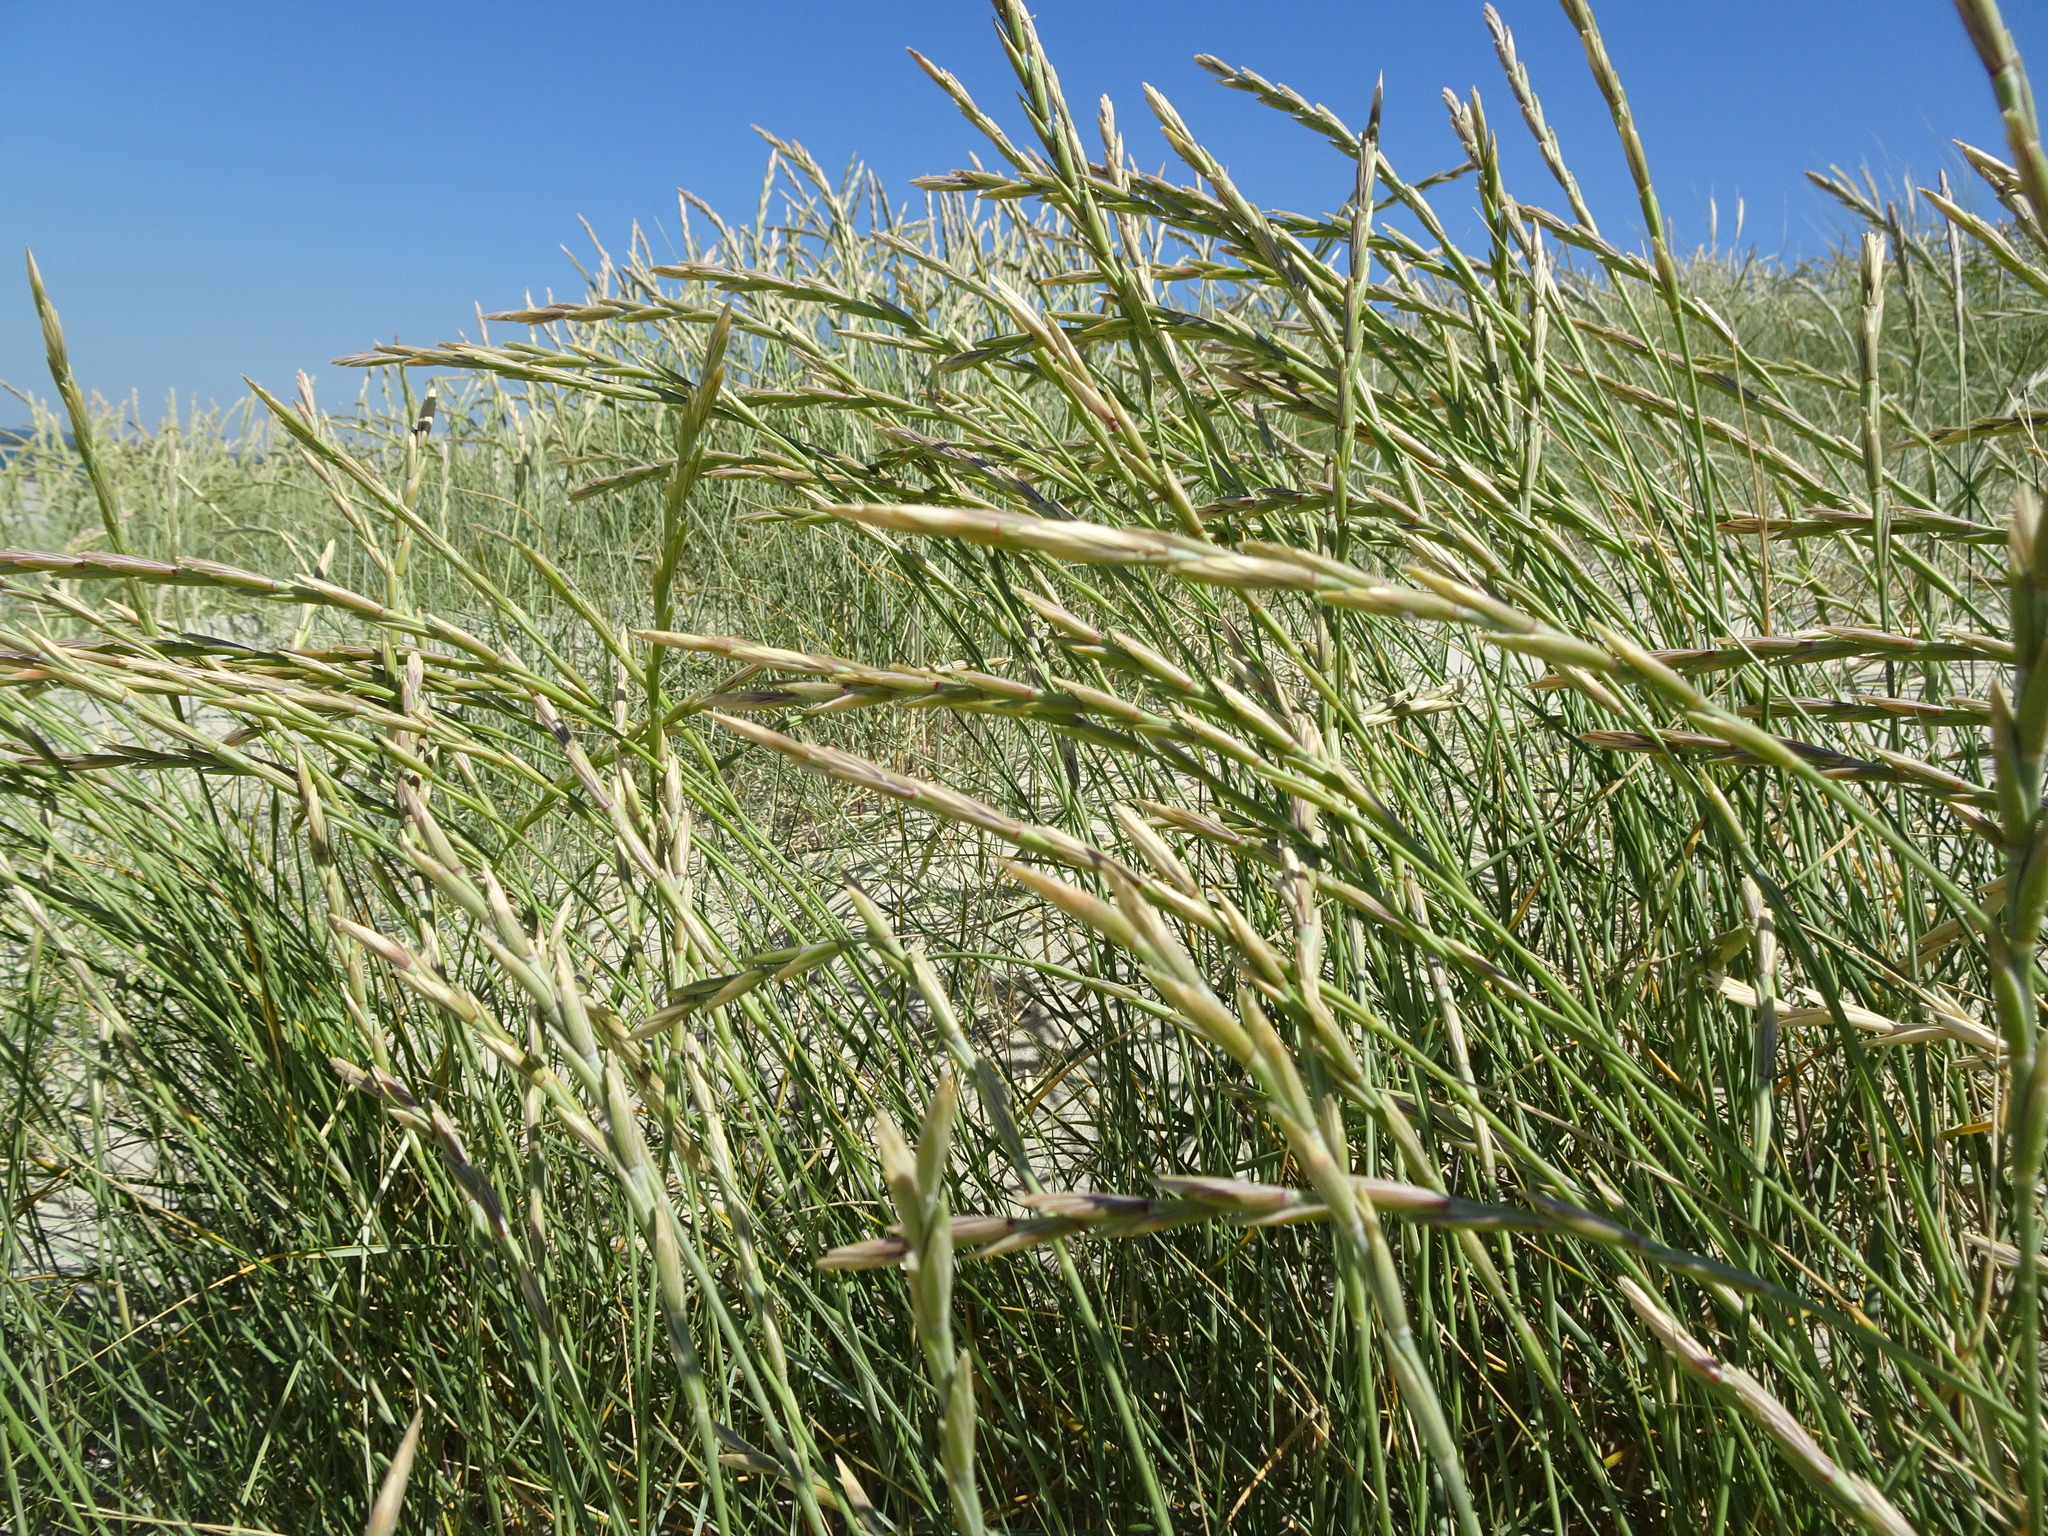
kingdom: Plantae
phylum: Tracheophyta
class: Liliopsida
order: Poales
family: Poaceae
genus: Thinopyrum
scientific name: Thinopyrum junceum
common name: Russian wheatgrass
